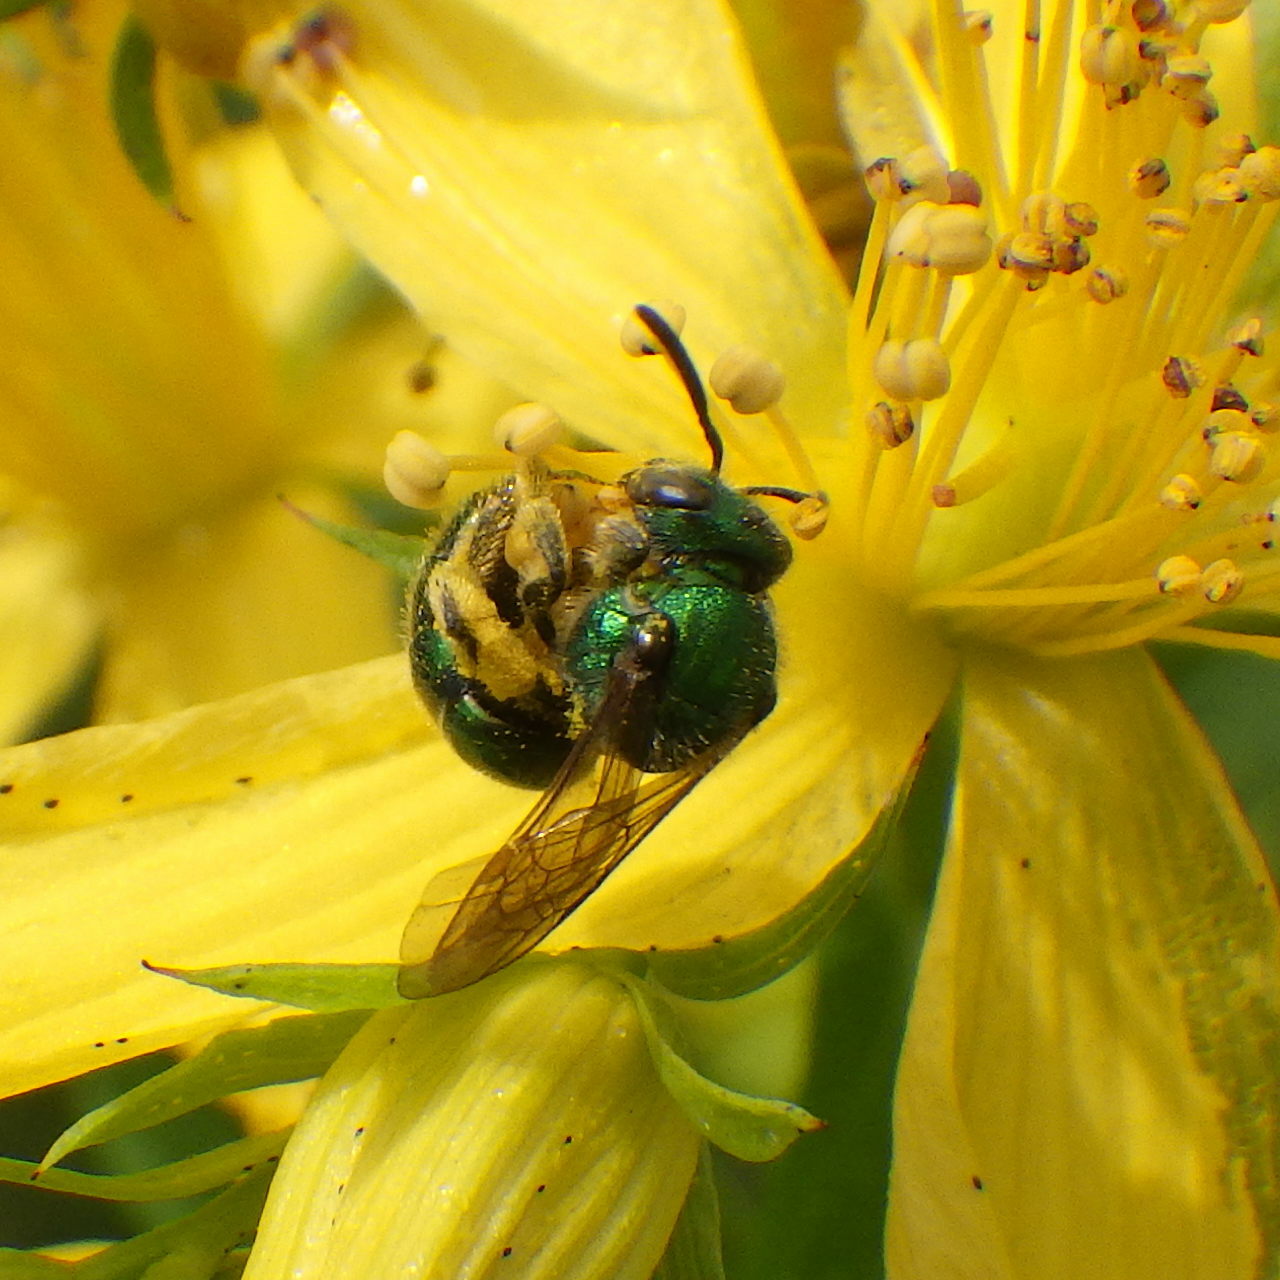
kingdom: Animalia
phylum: Arthropoda
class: Insecta
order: Hymenoptera
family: Halictidae
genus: Augochlorella
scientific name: Augochlorella aurata
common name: Golden sweat bee
